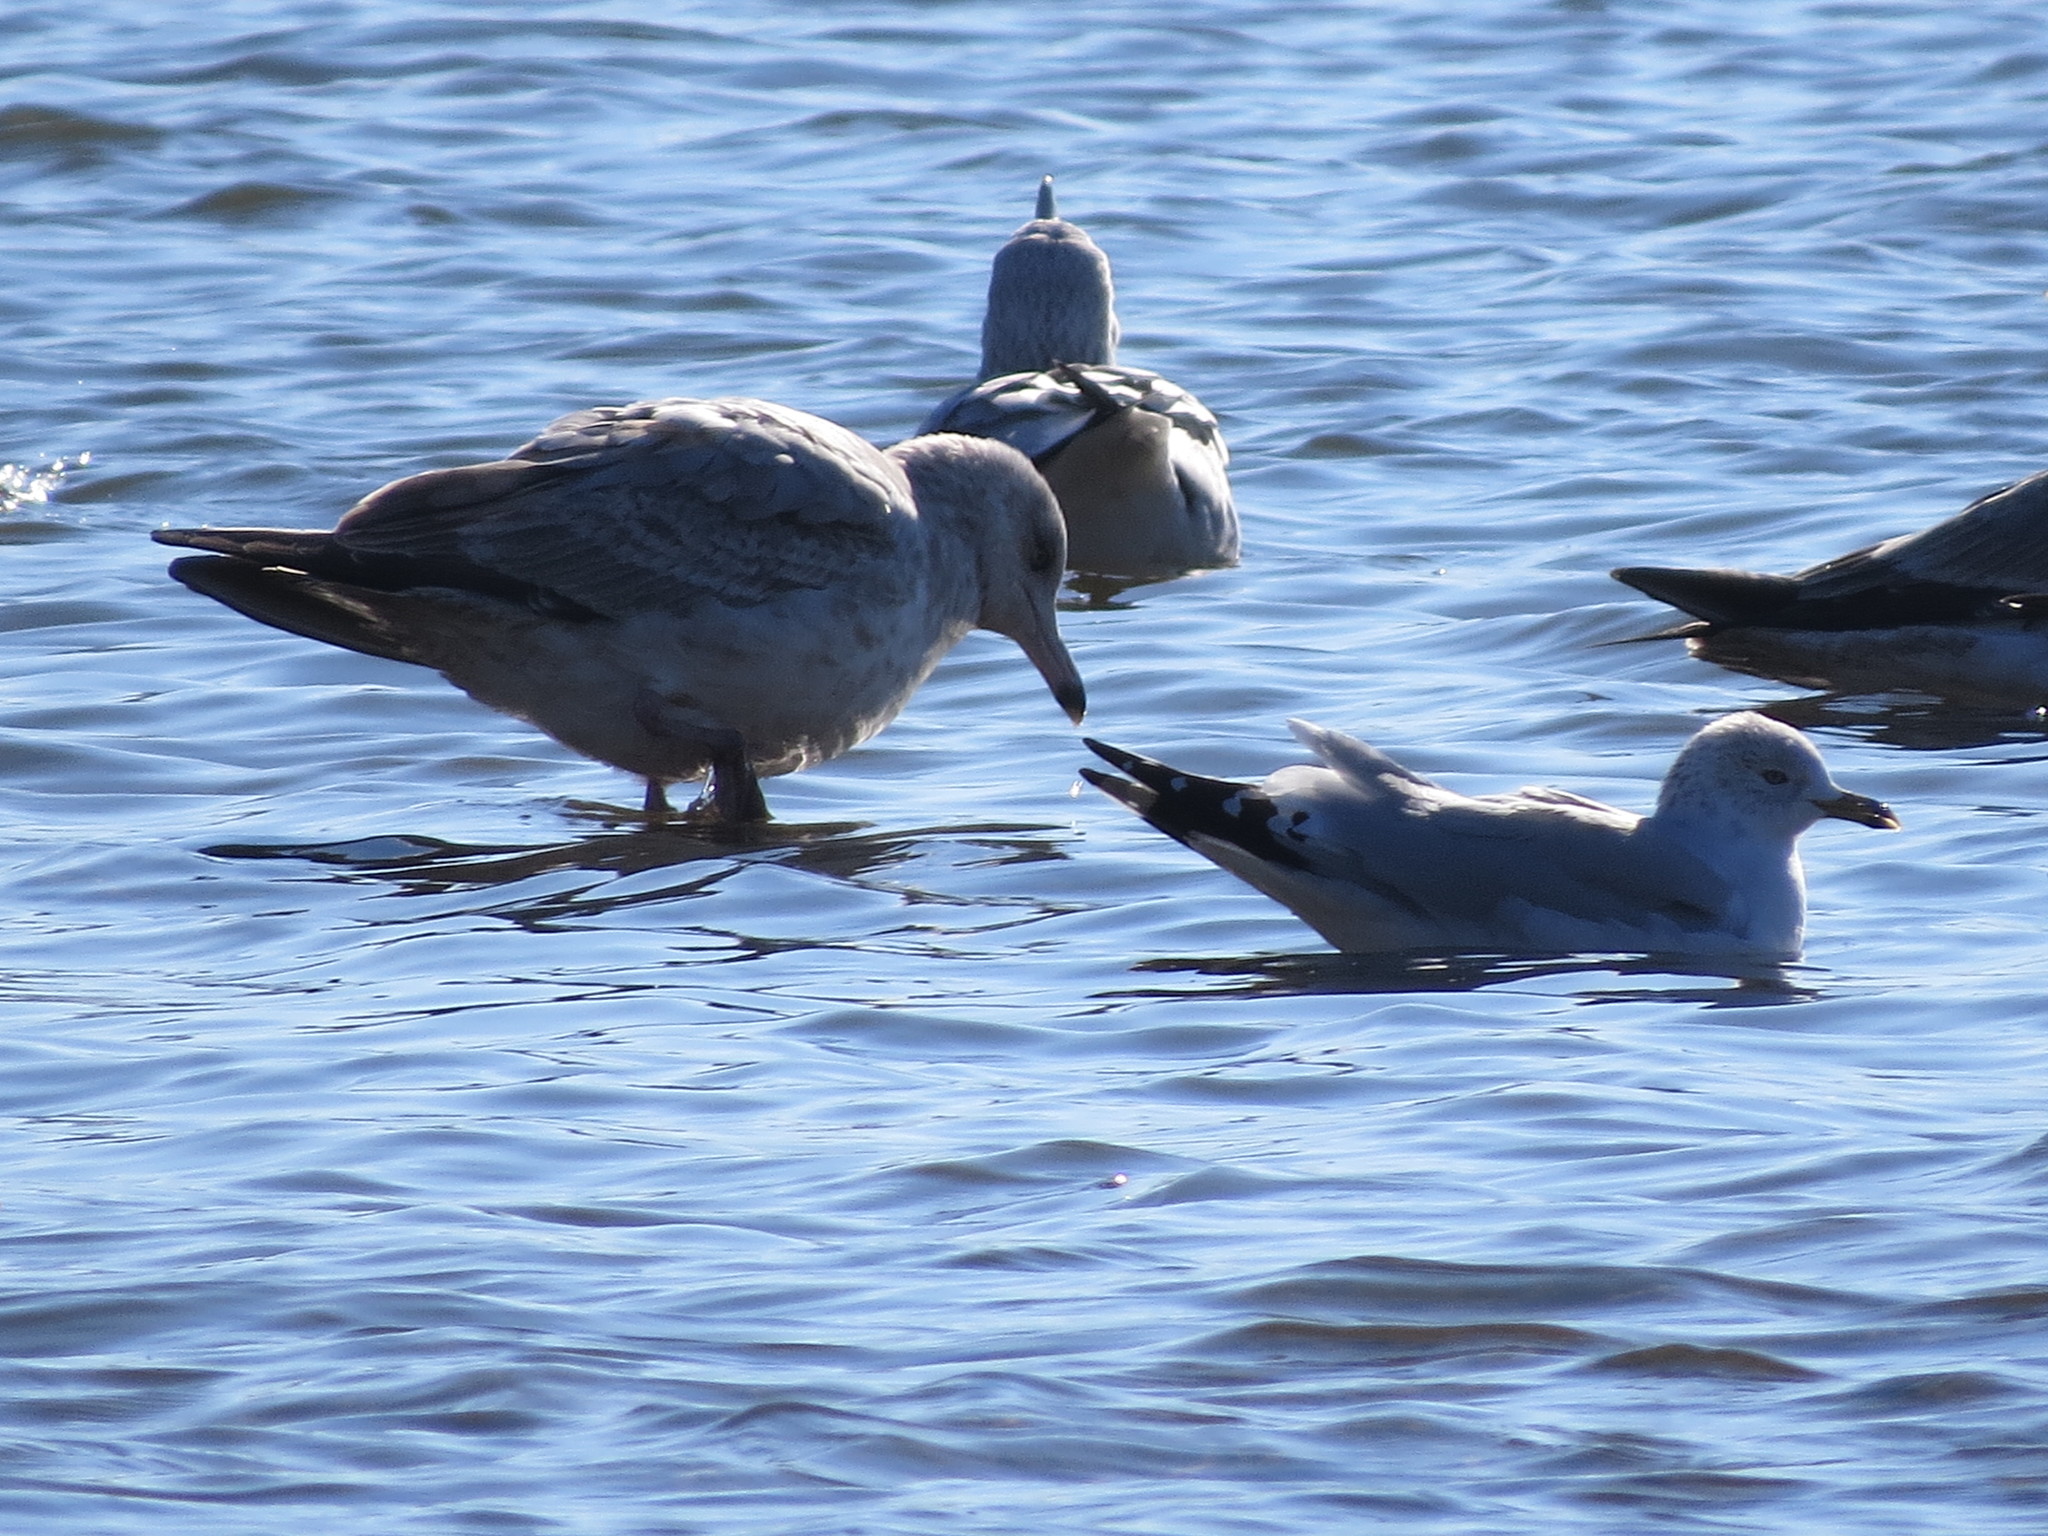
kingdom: Animalia
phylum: Chordata
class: Aves
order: Charadriiformes
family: Laridae
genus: Larus
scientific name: Larus delawarensis
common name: Ring-billed gull
